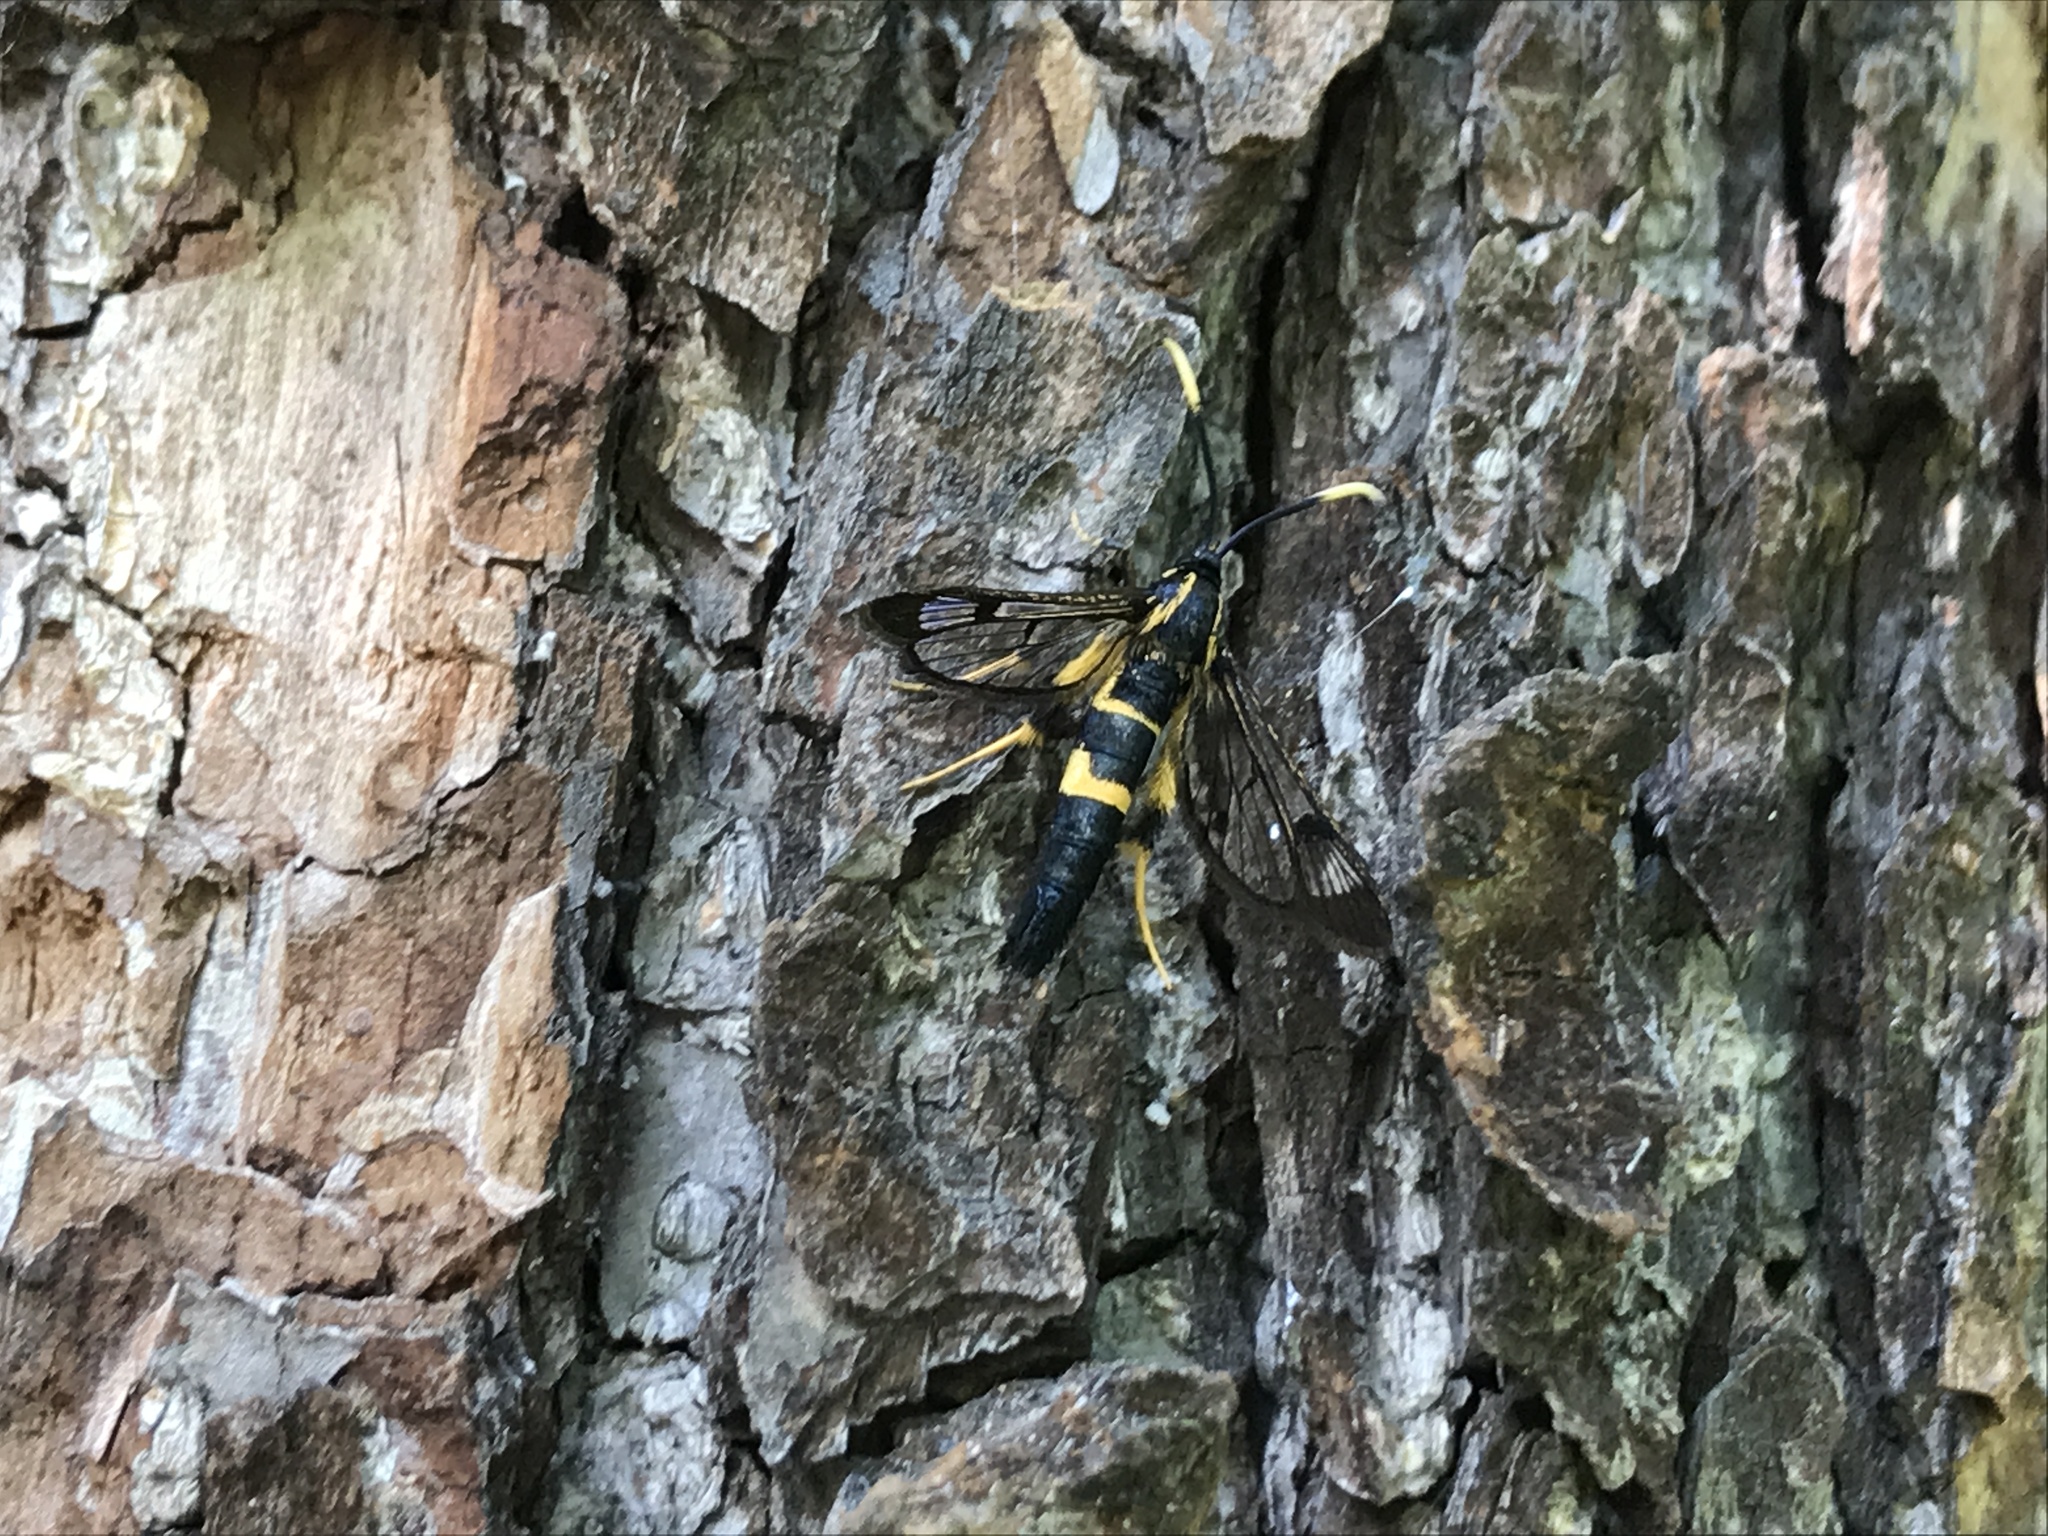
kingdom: Animalia
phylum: Arthropoda
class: Insecta
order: Lepidoptera
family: Sesiidae
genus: Synanthedon
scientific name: Synanthedon mesiaeformis
